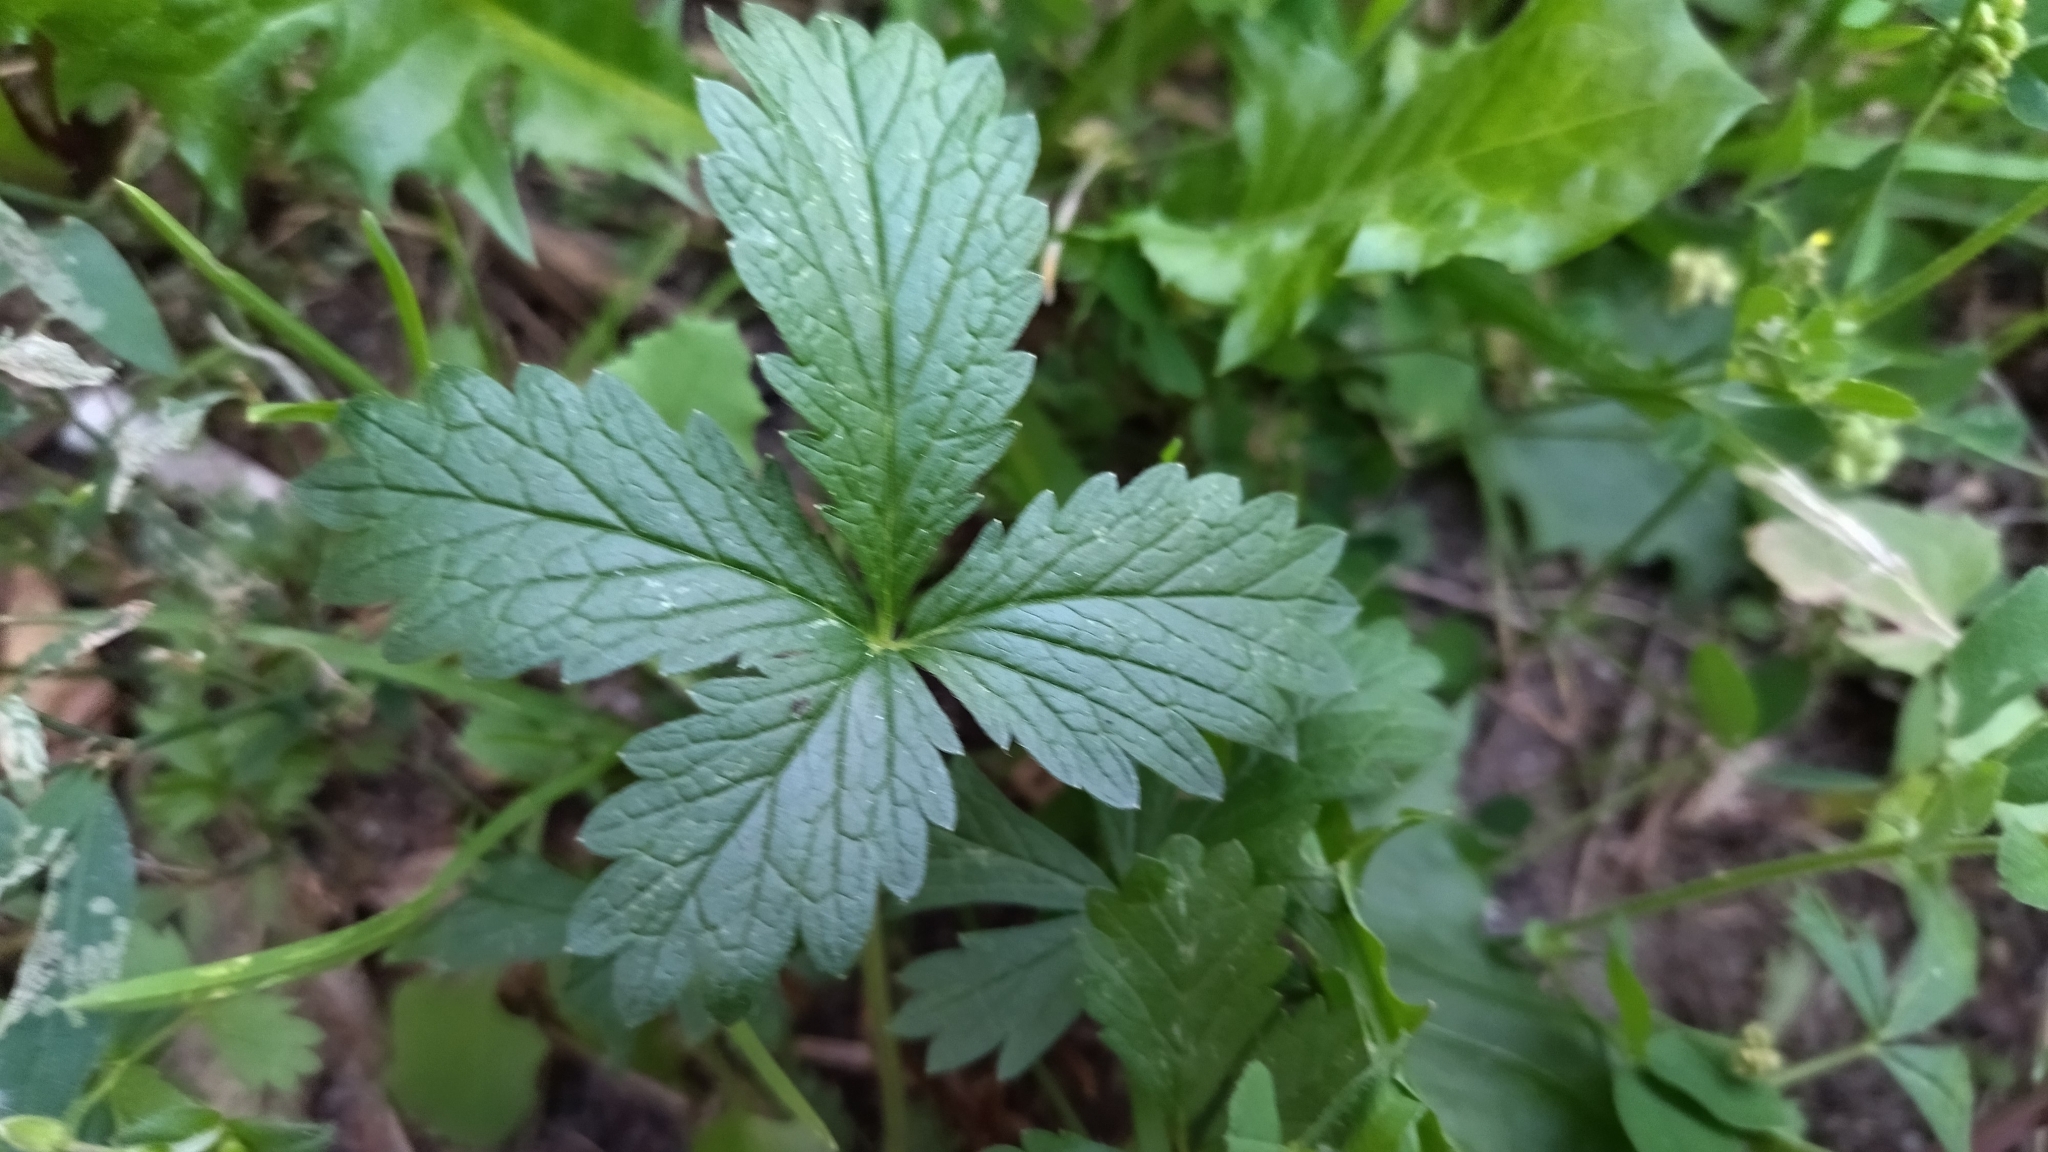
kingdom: Plantae
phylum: Tracheophyta
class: Magnoliopsida
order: Rosales
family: Rosaceae
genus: Potentilla
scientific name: Potentilla intermedia
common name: Downy cinquefoil
